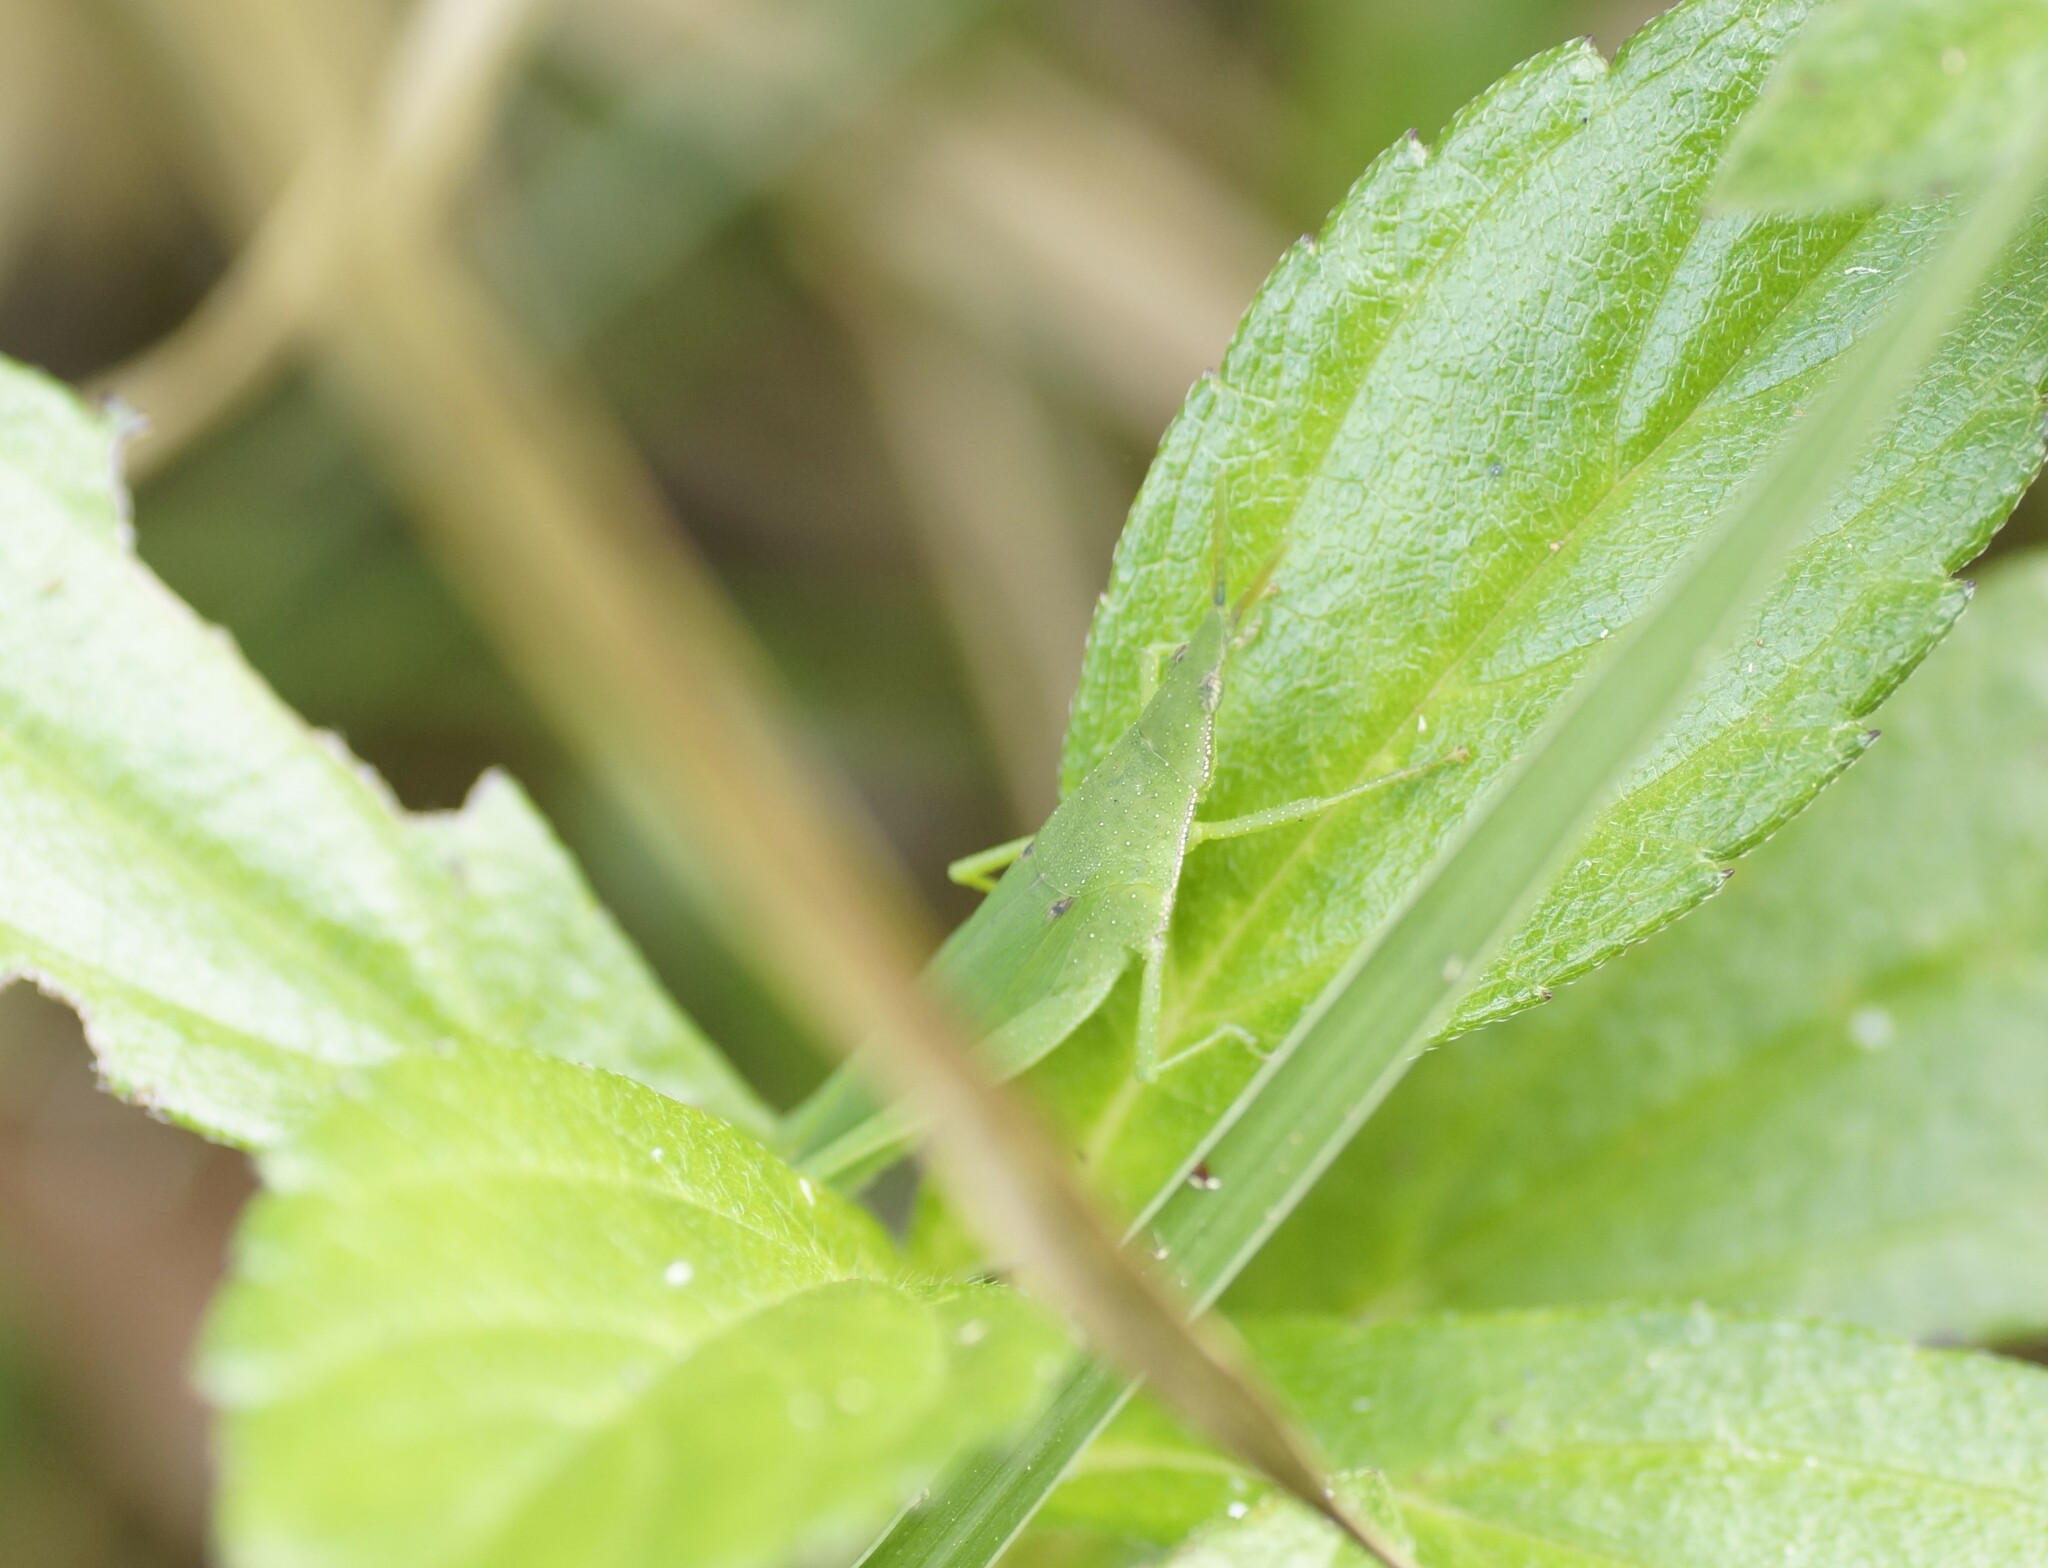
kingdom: Animalia
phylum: Arthropoda
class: Insecta
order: Orthoptera
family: Pyrgomorphidae
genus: Atractomorpha
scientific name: Atractomorpha similis
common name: Northern grass pyrgomorph
